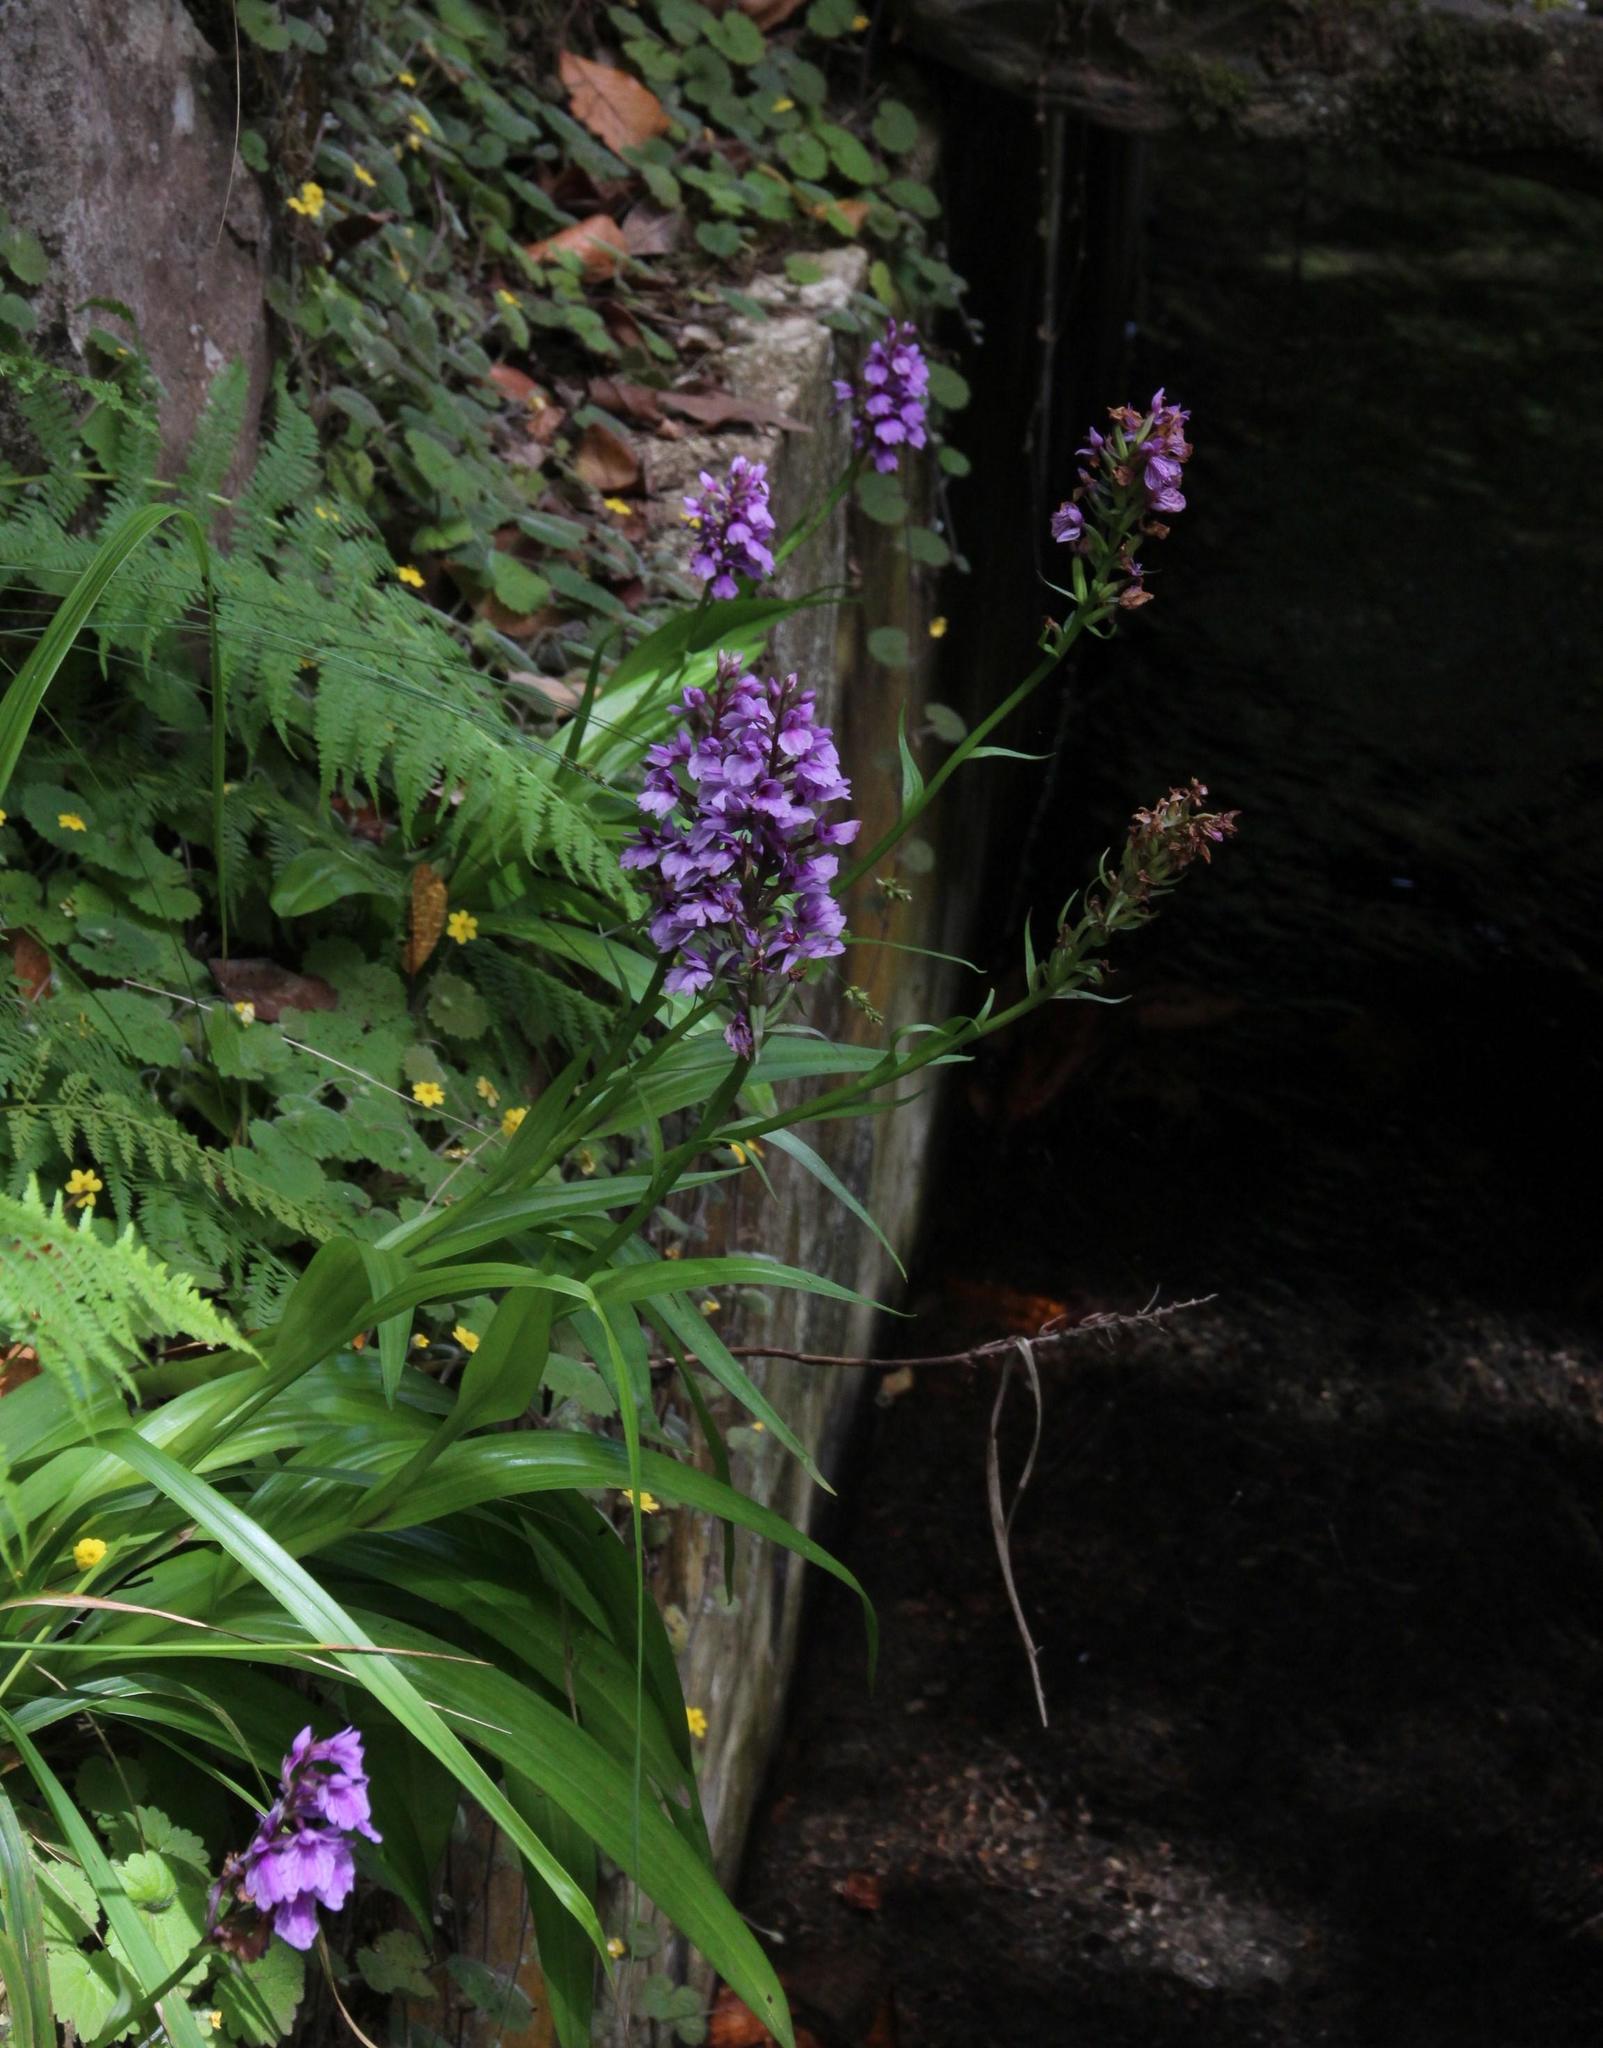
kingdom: Plantae
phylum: Tracheophyta
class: Liliopsida
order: Asparagales
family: Orchidaceae
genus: Dactylorhiza
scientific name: Dactylorhiza foliosa
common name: Richly-leaved dactylorhiza
